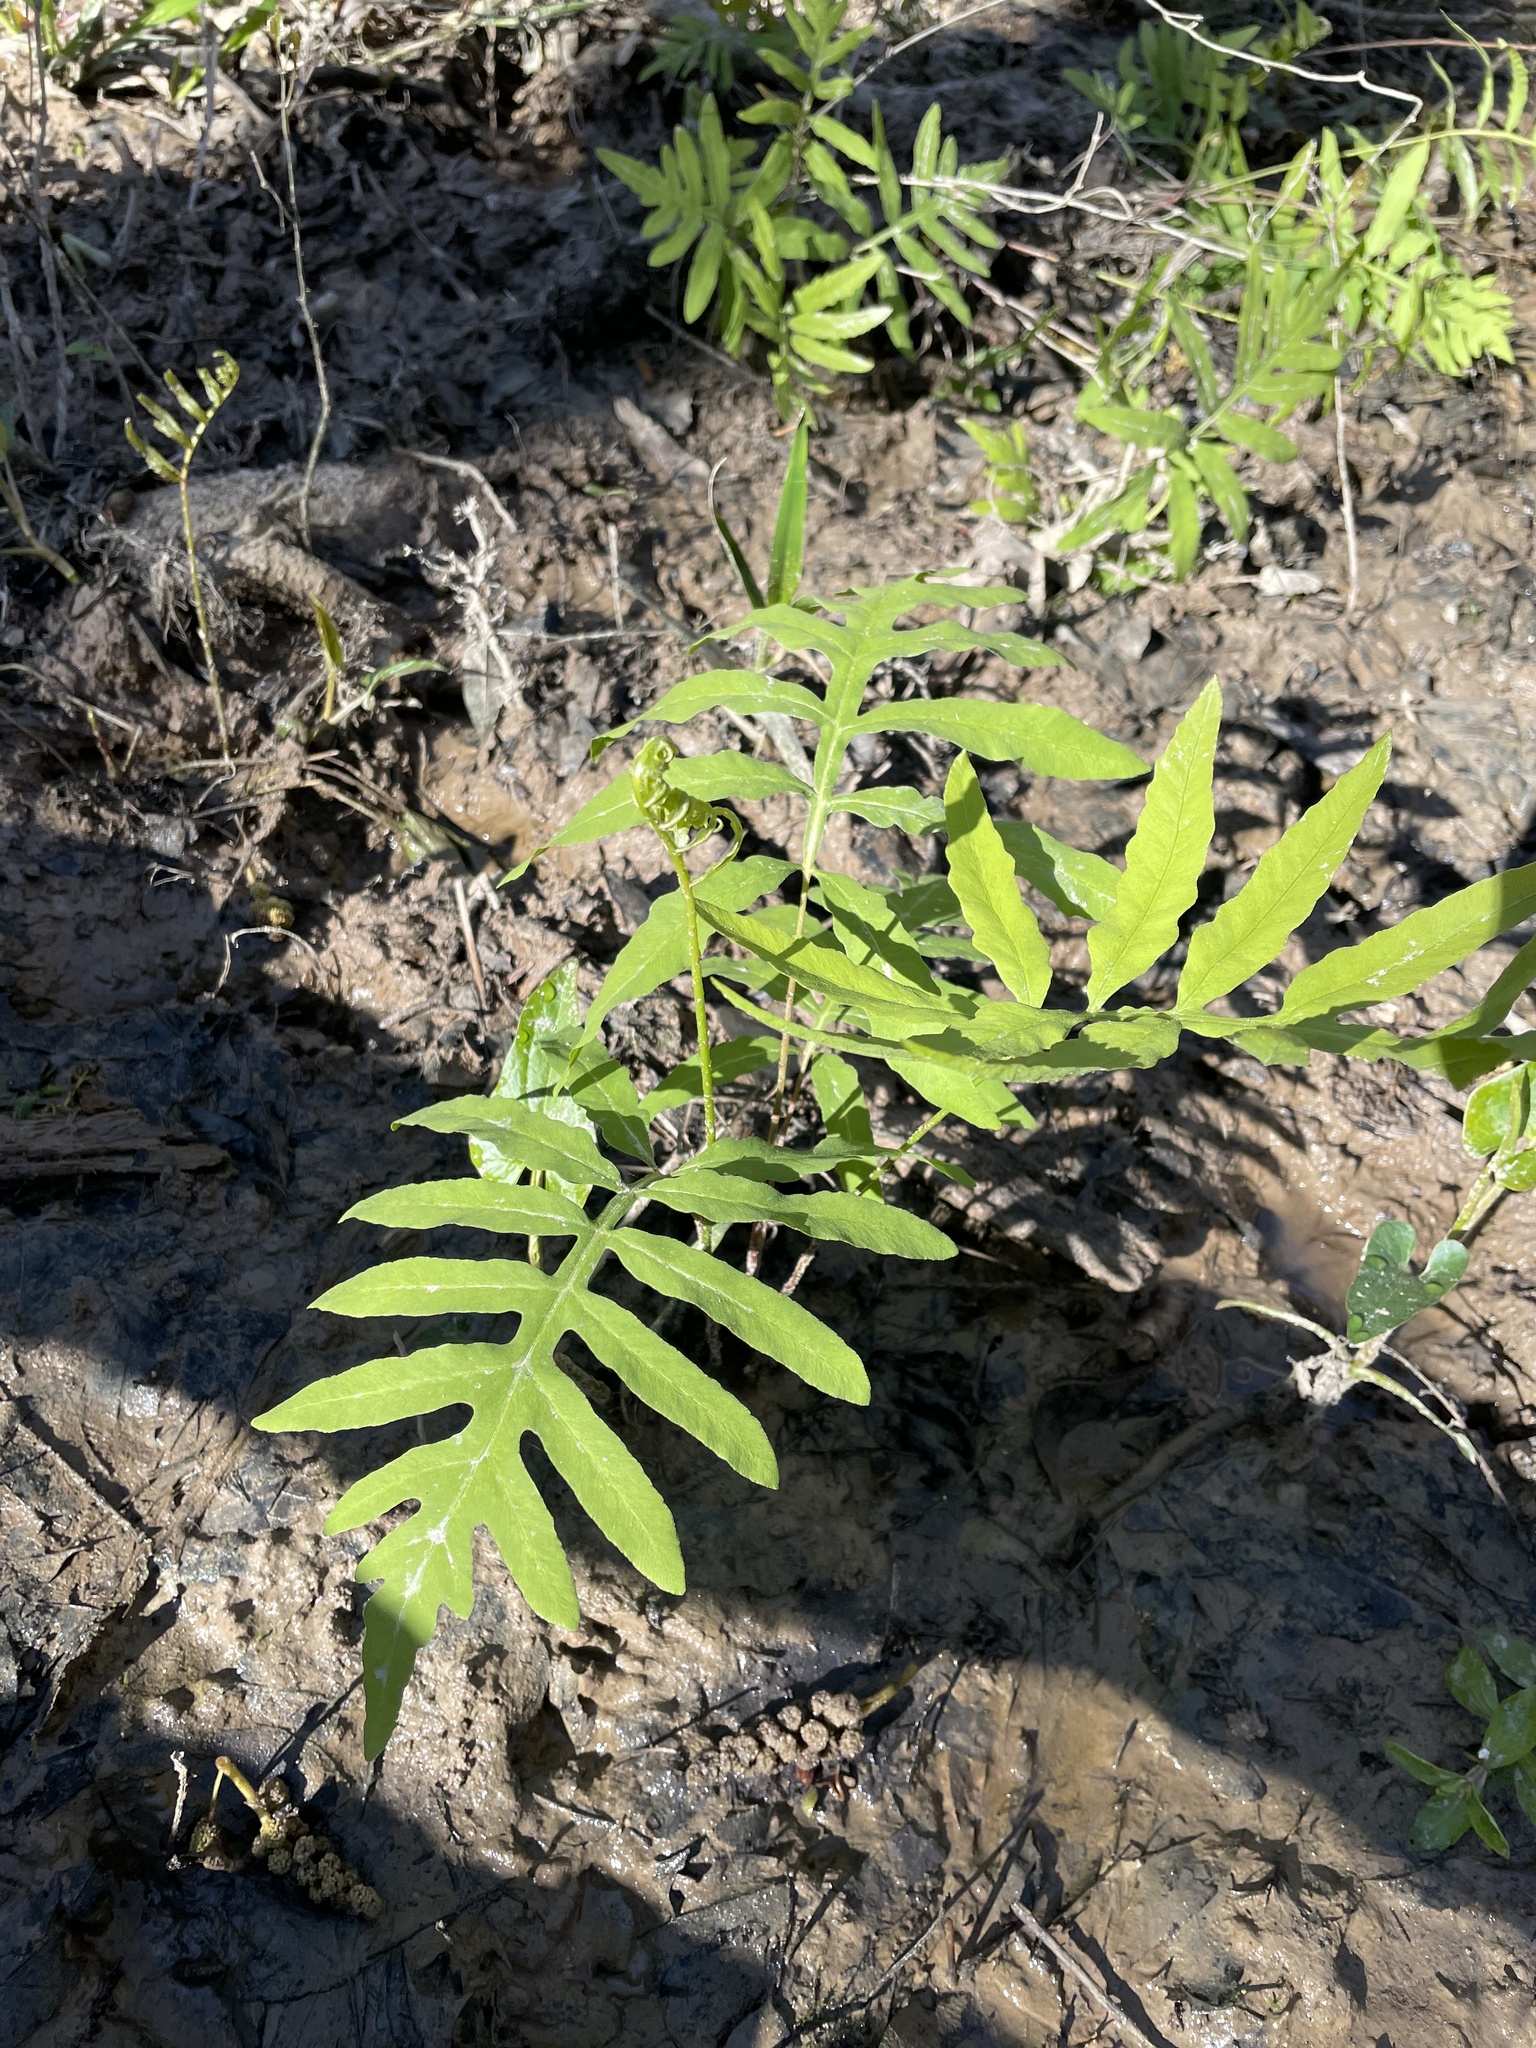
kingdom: Plantae
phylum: Tracheophyta
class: Polypodiopsida
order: Polypodiales
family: Onocleaceae
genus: Onoclea
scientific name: Onoclea sensibilis
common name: Sensitive fern
